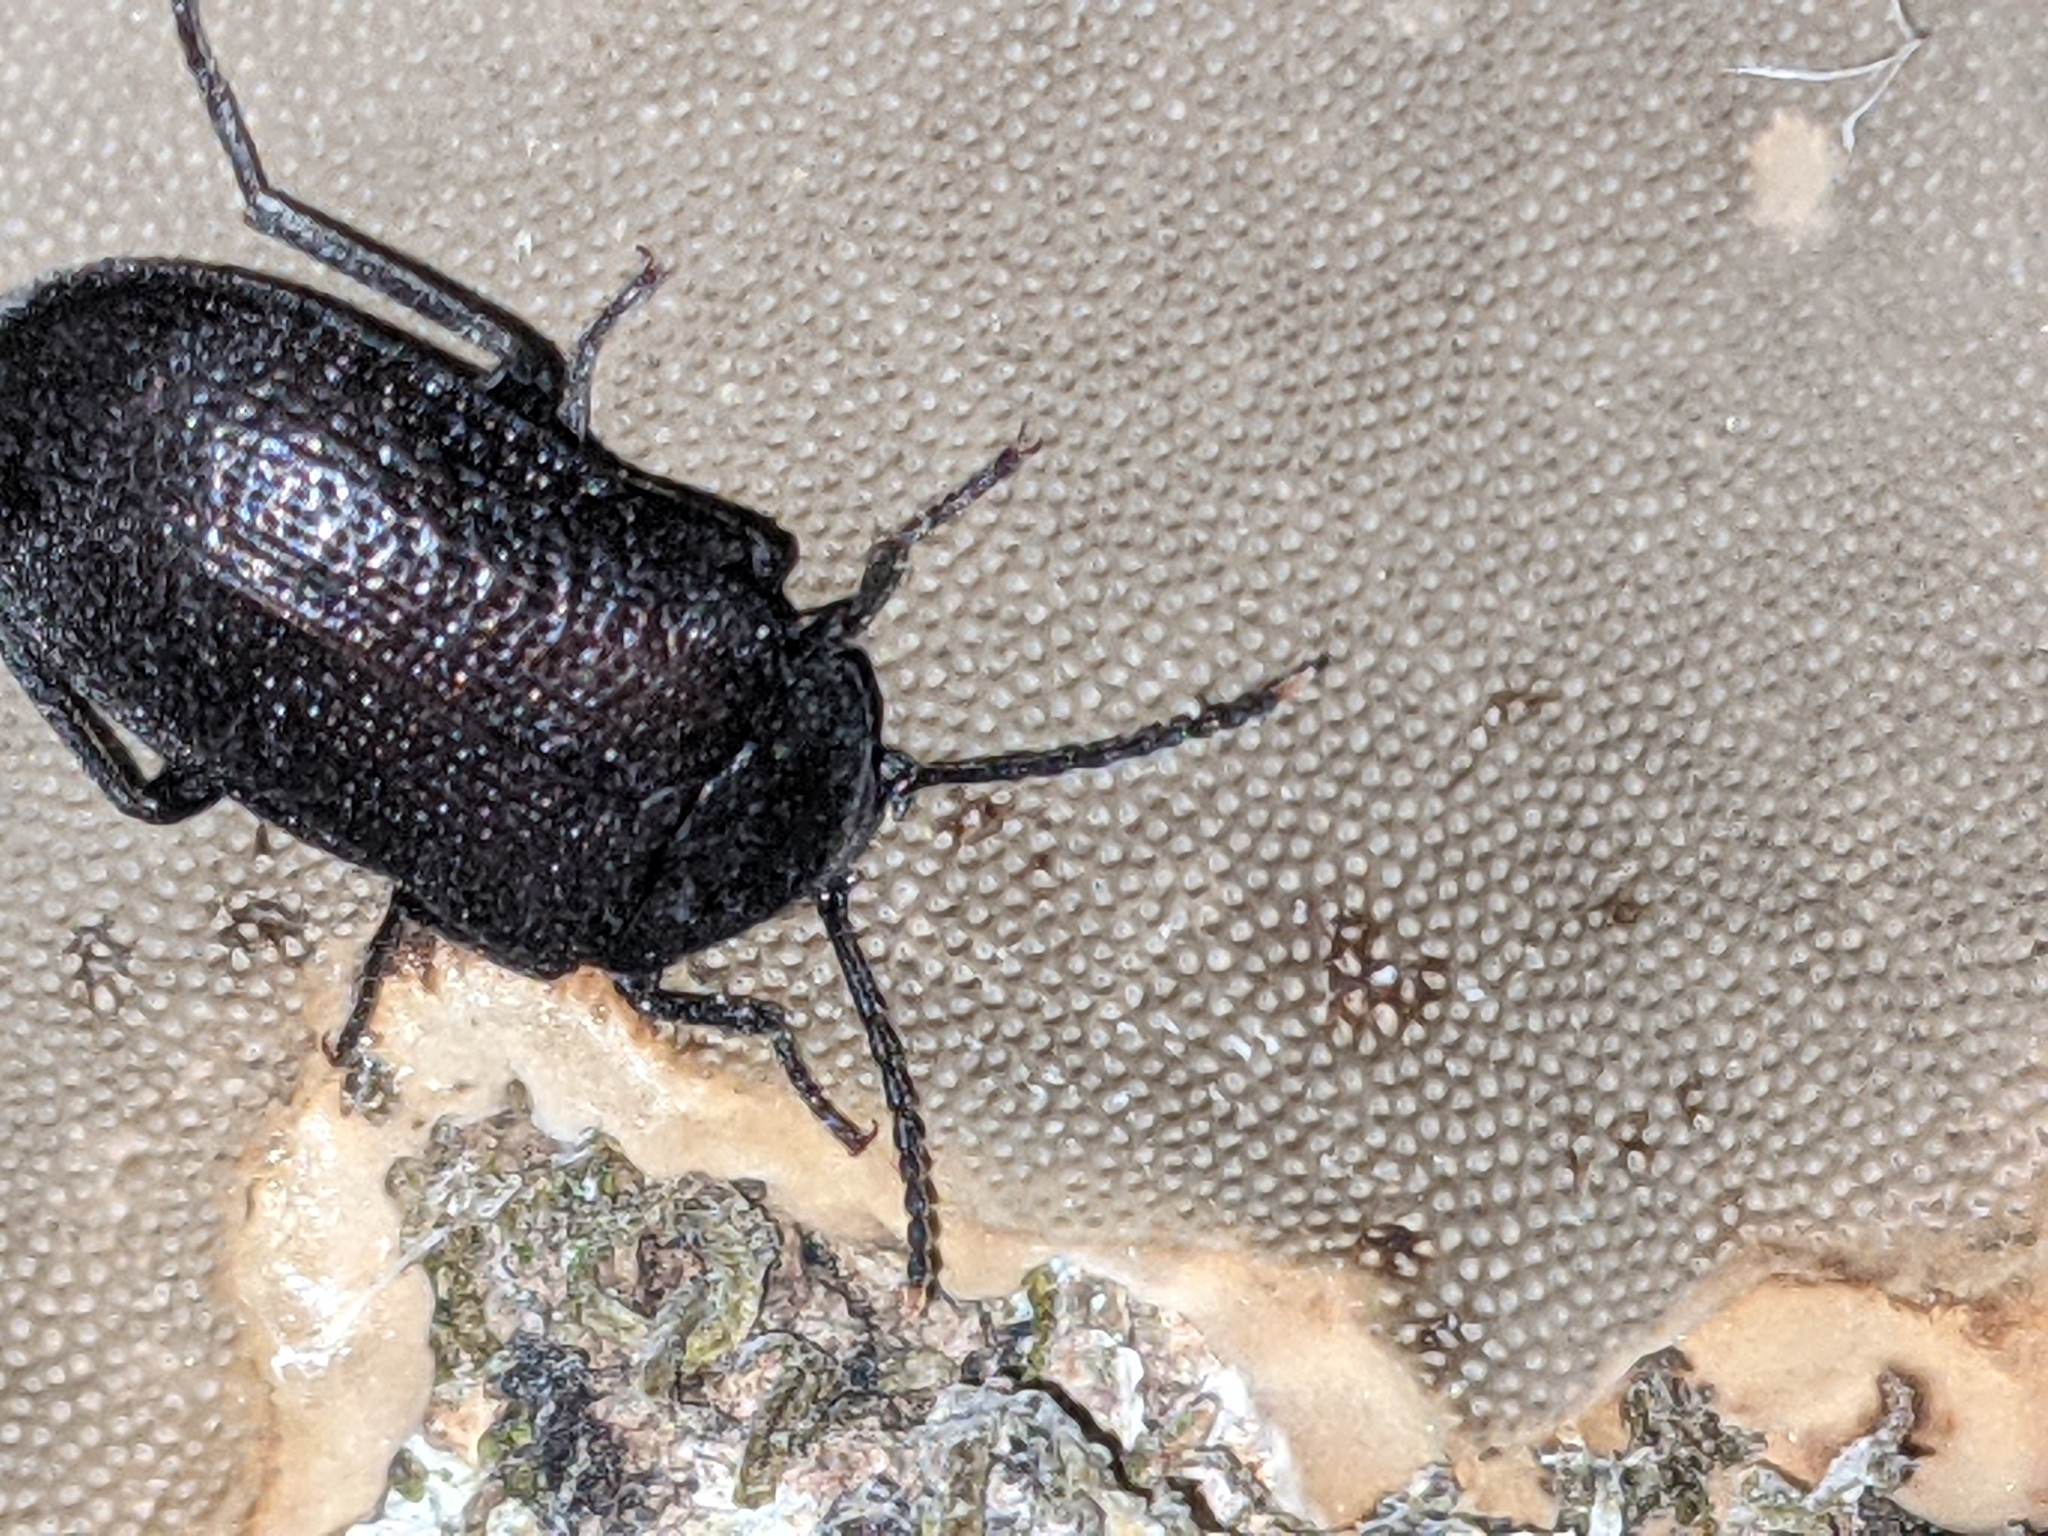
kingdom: Animalia
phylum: Arthropoda
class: Insecta
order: Coleoptera
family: Tetratomidae
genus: Penthe
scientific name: Penthe pimelia
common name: Velvety bark beetle
